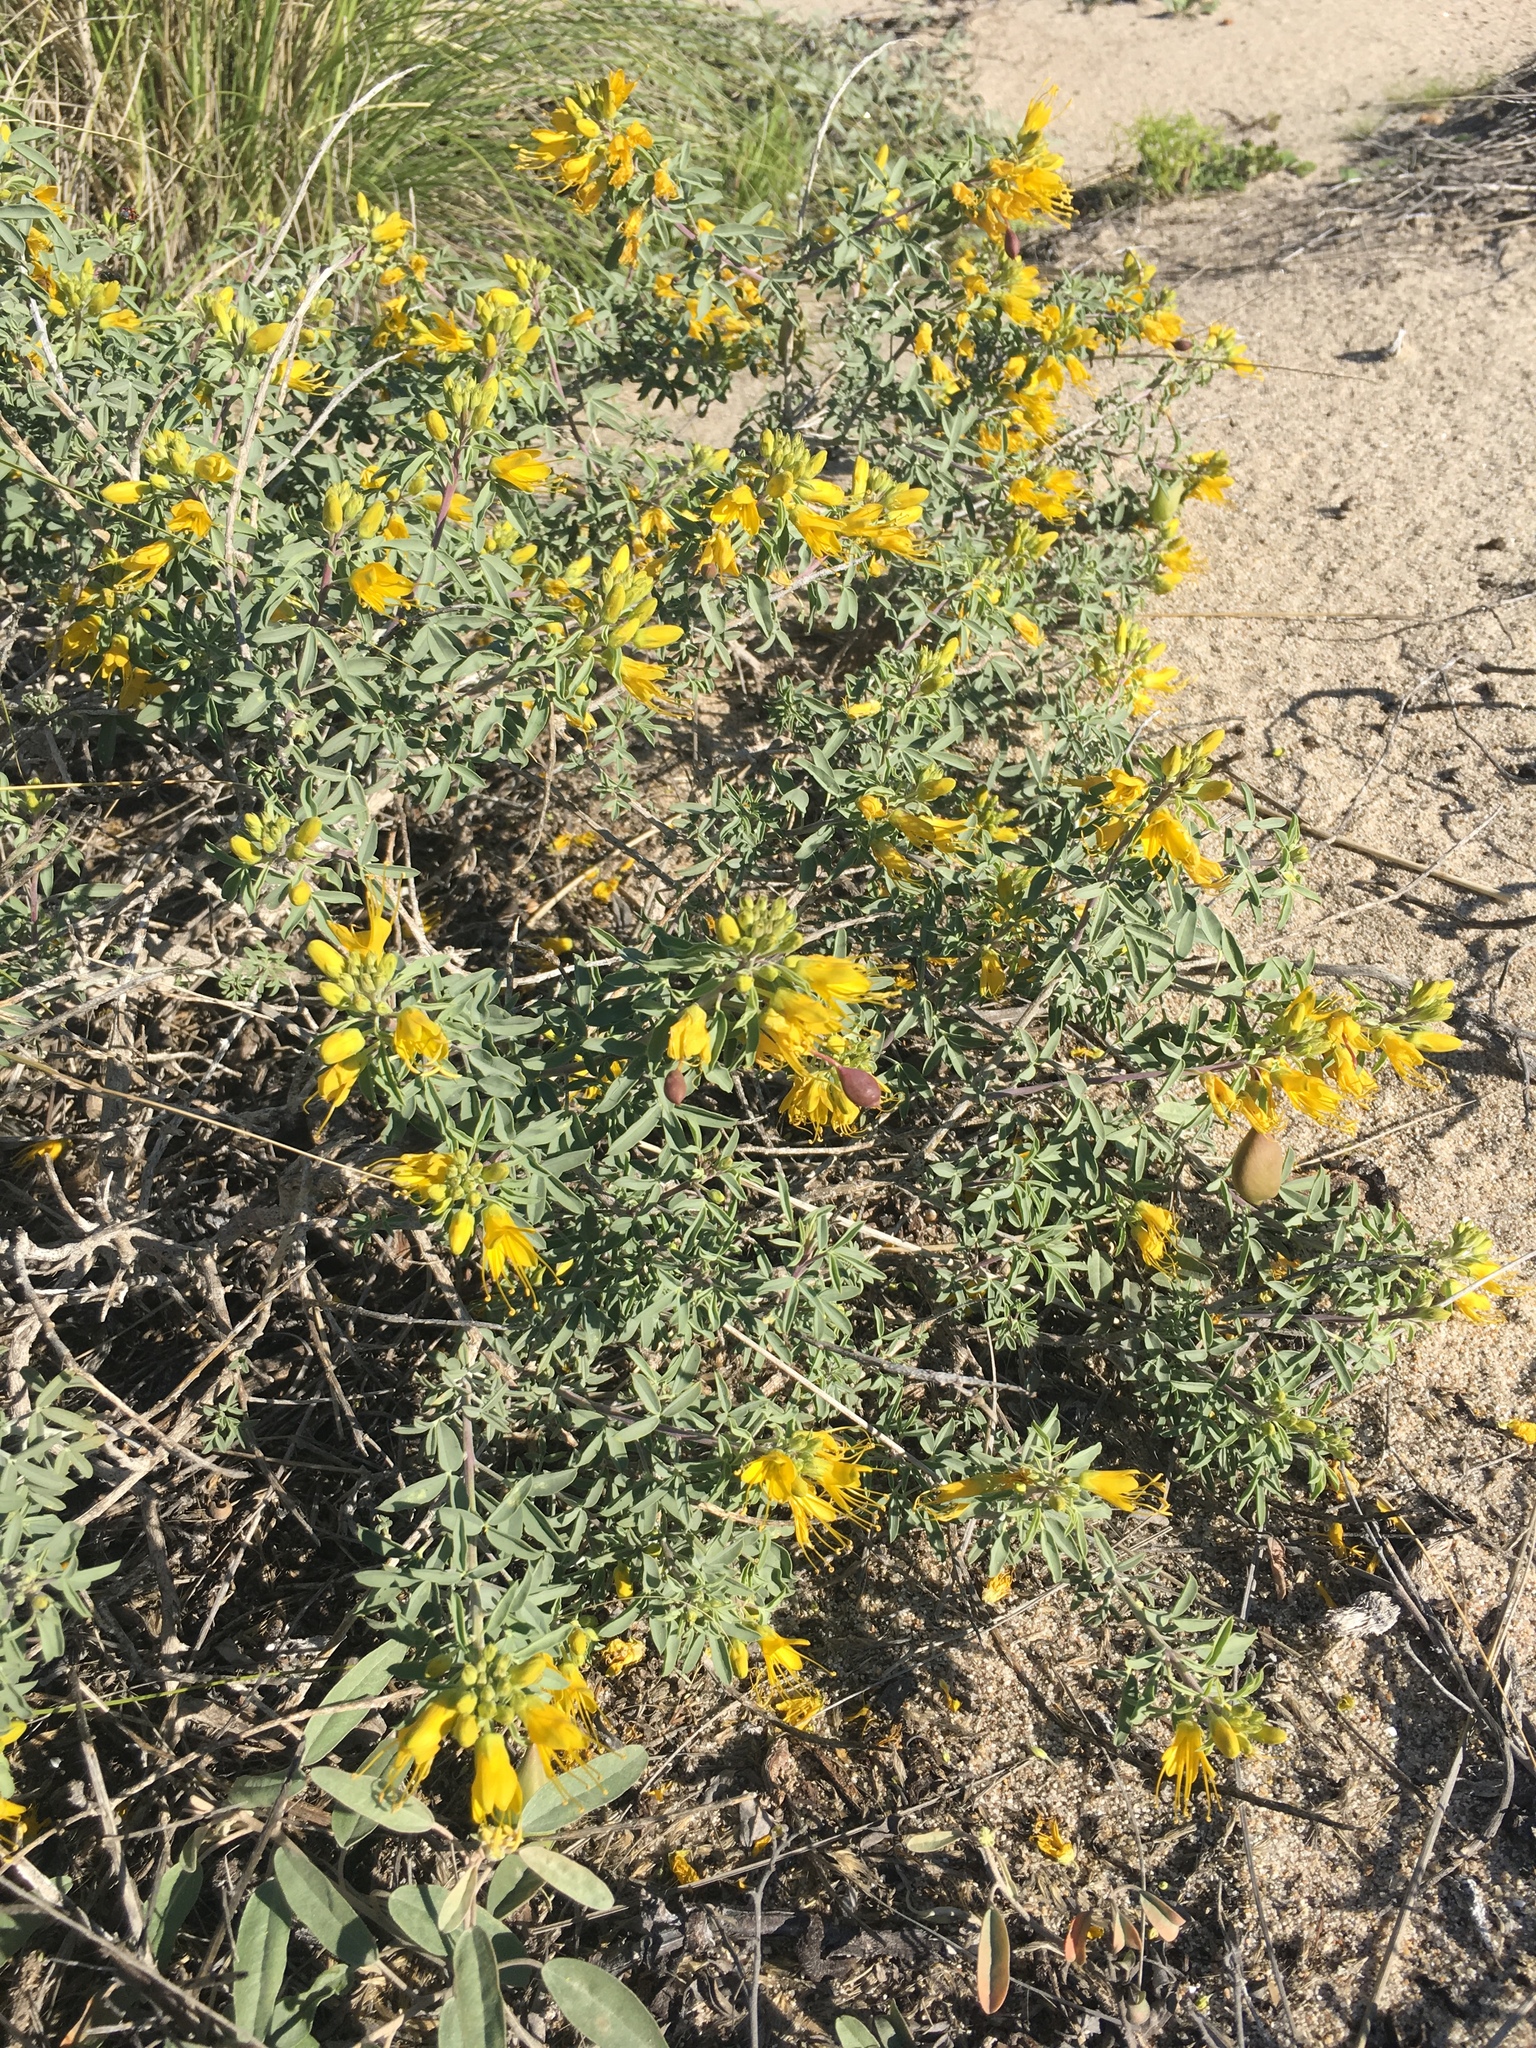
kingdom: Plantae
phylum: Tracheophyta
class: Magnoliopsida
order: Brassicales
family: Cleomaceae
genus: Cleomella
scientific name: Cleomella arborea
